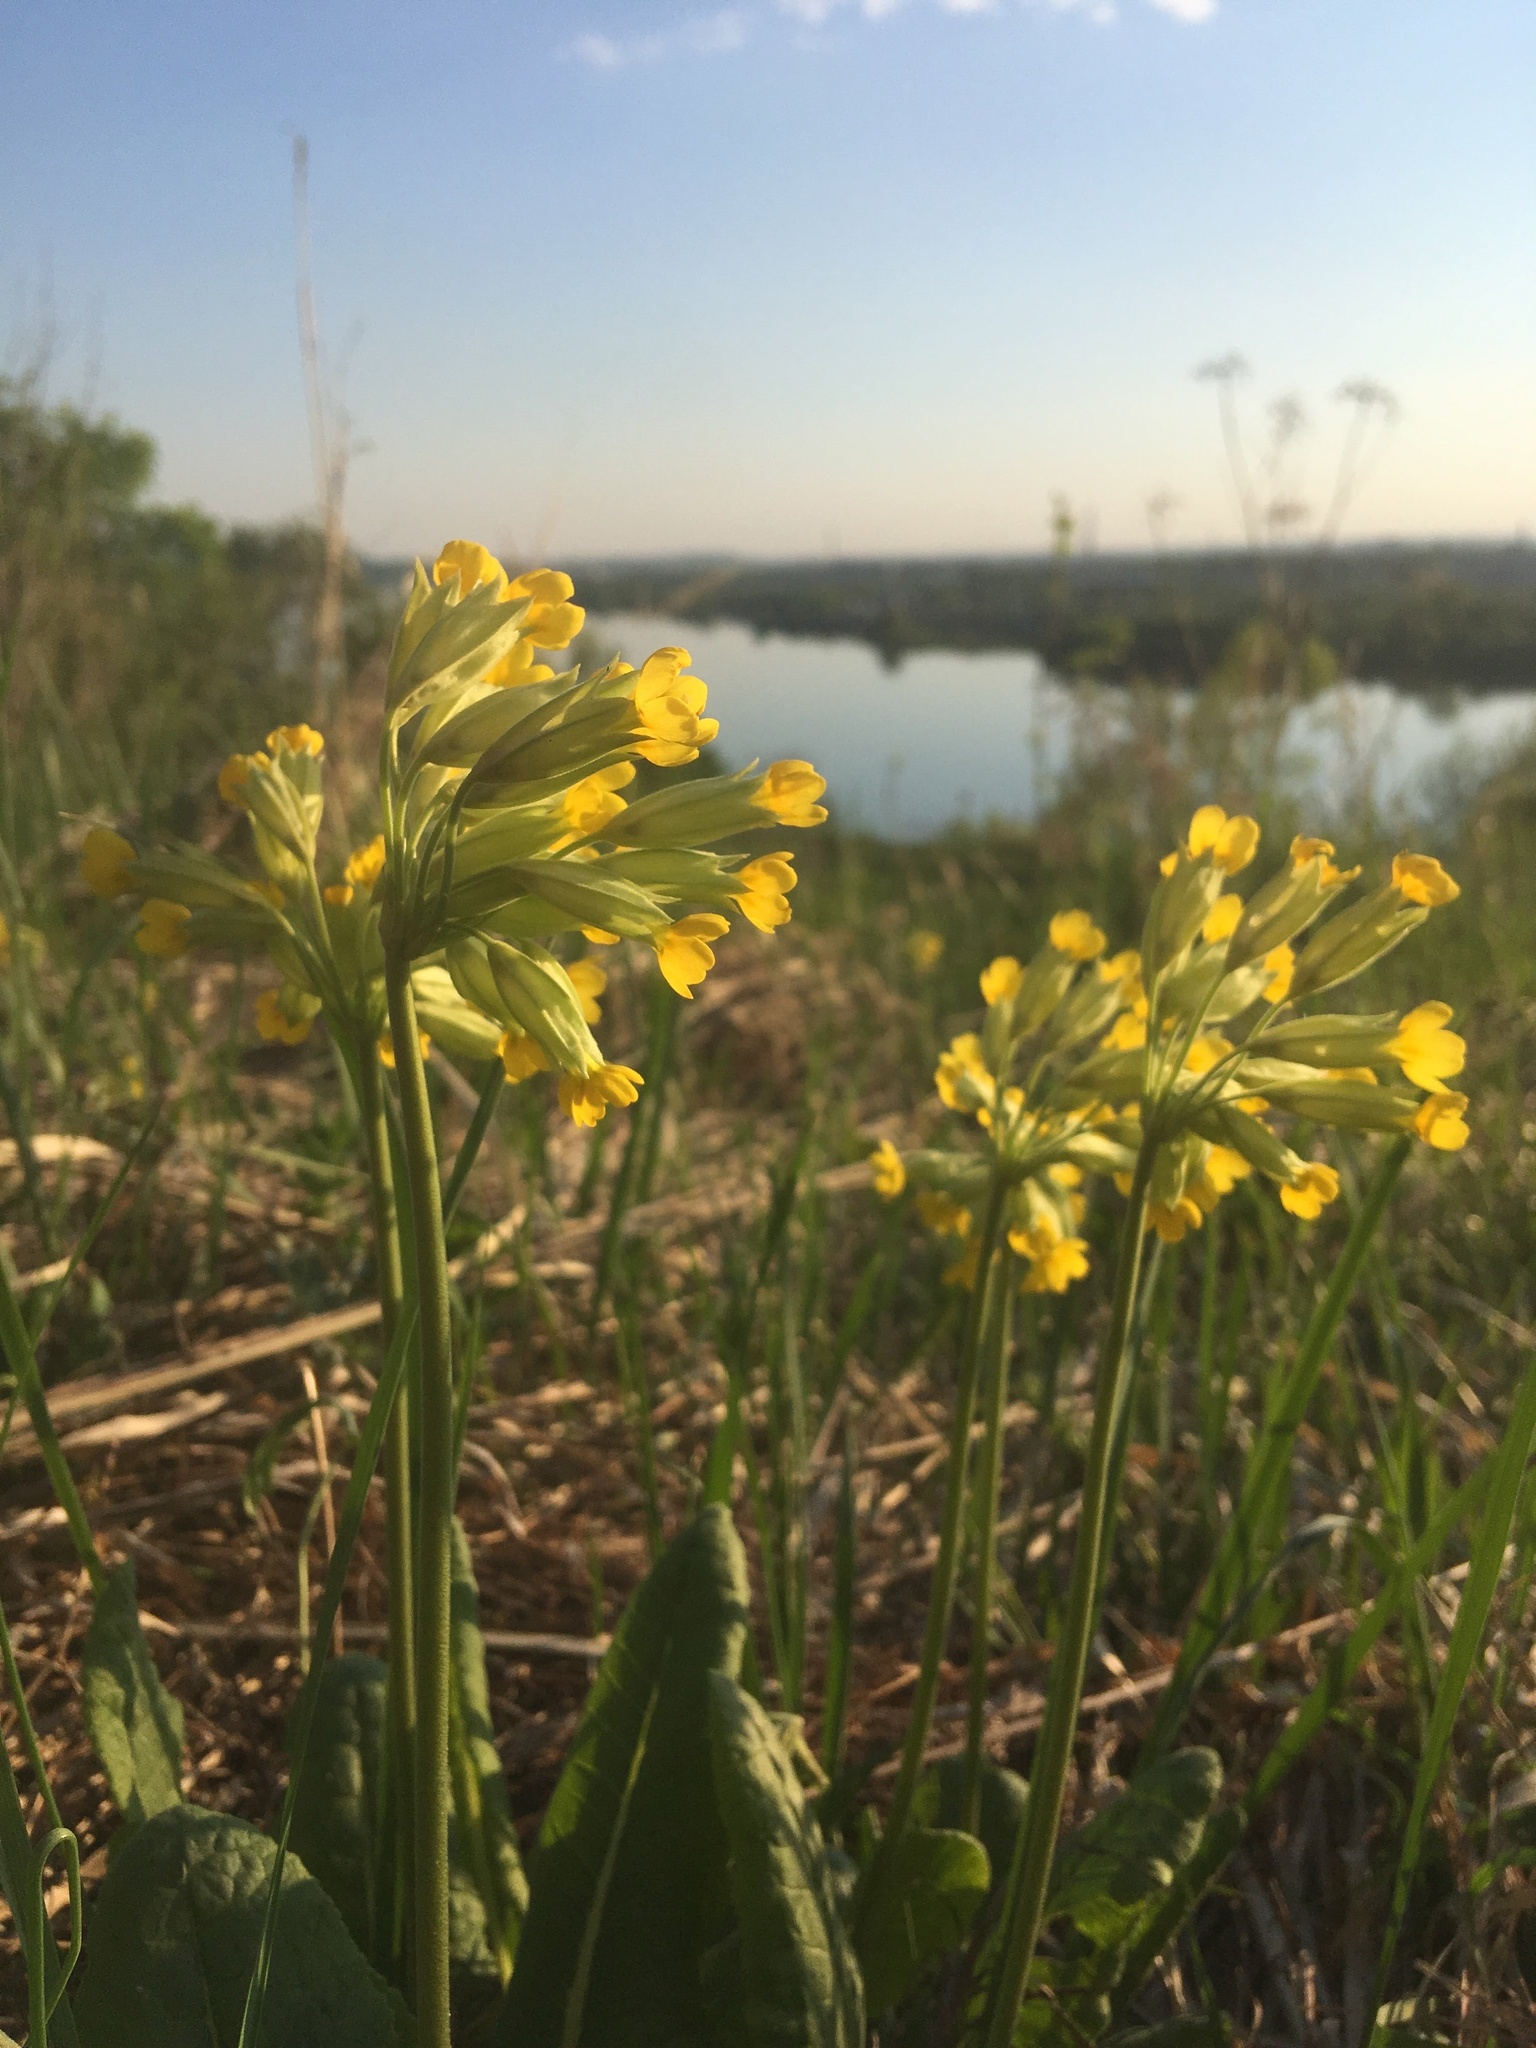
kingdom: Plantae
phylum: Tracheophyta
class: Magnoliopsida
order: Ericales
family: Primulaceae
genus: Primula
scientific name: Primula veris
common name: Cowslip
